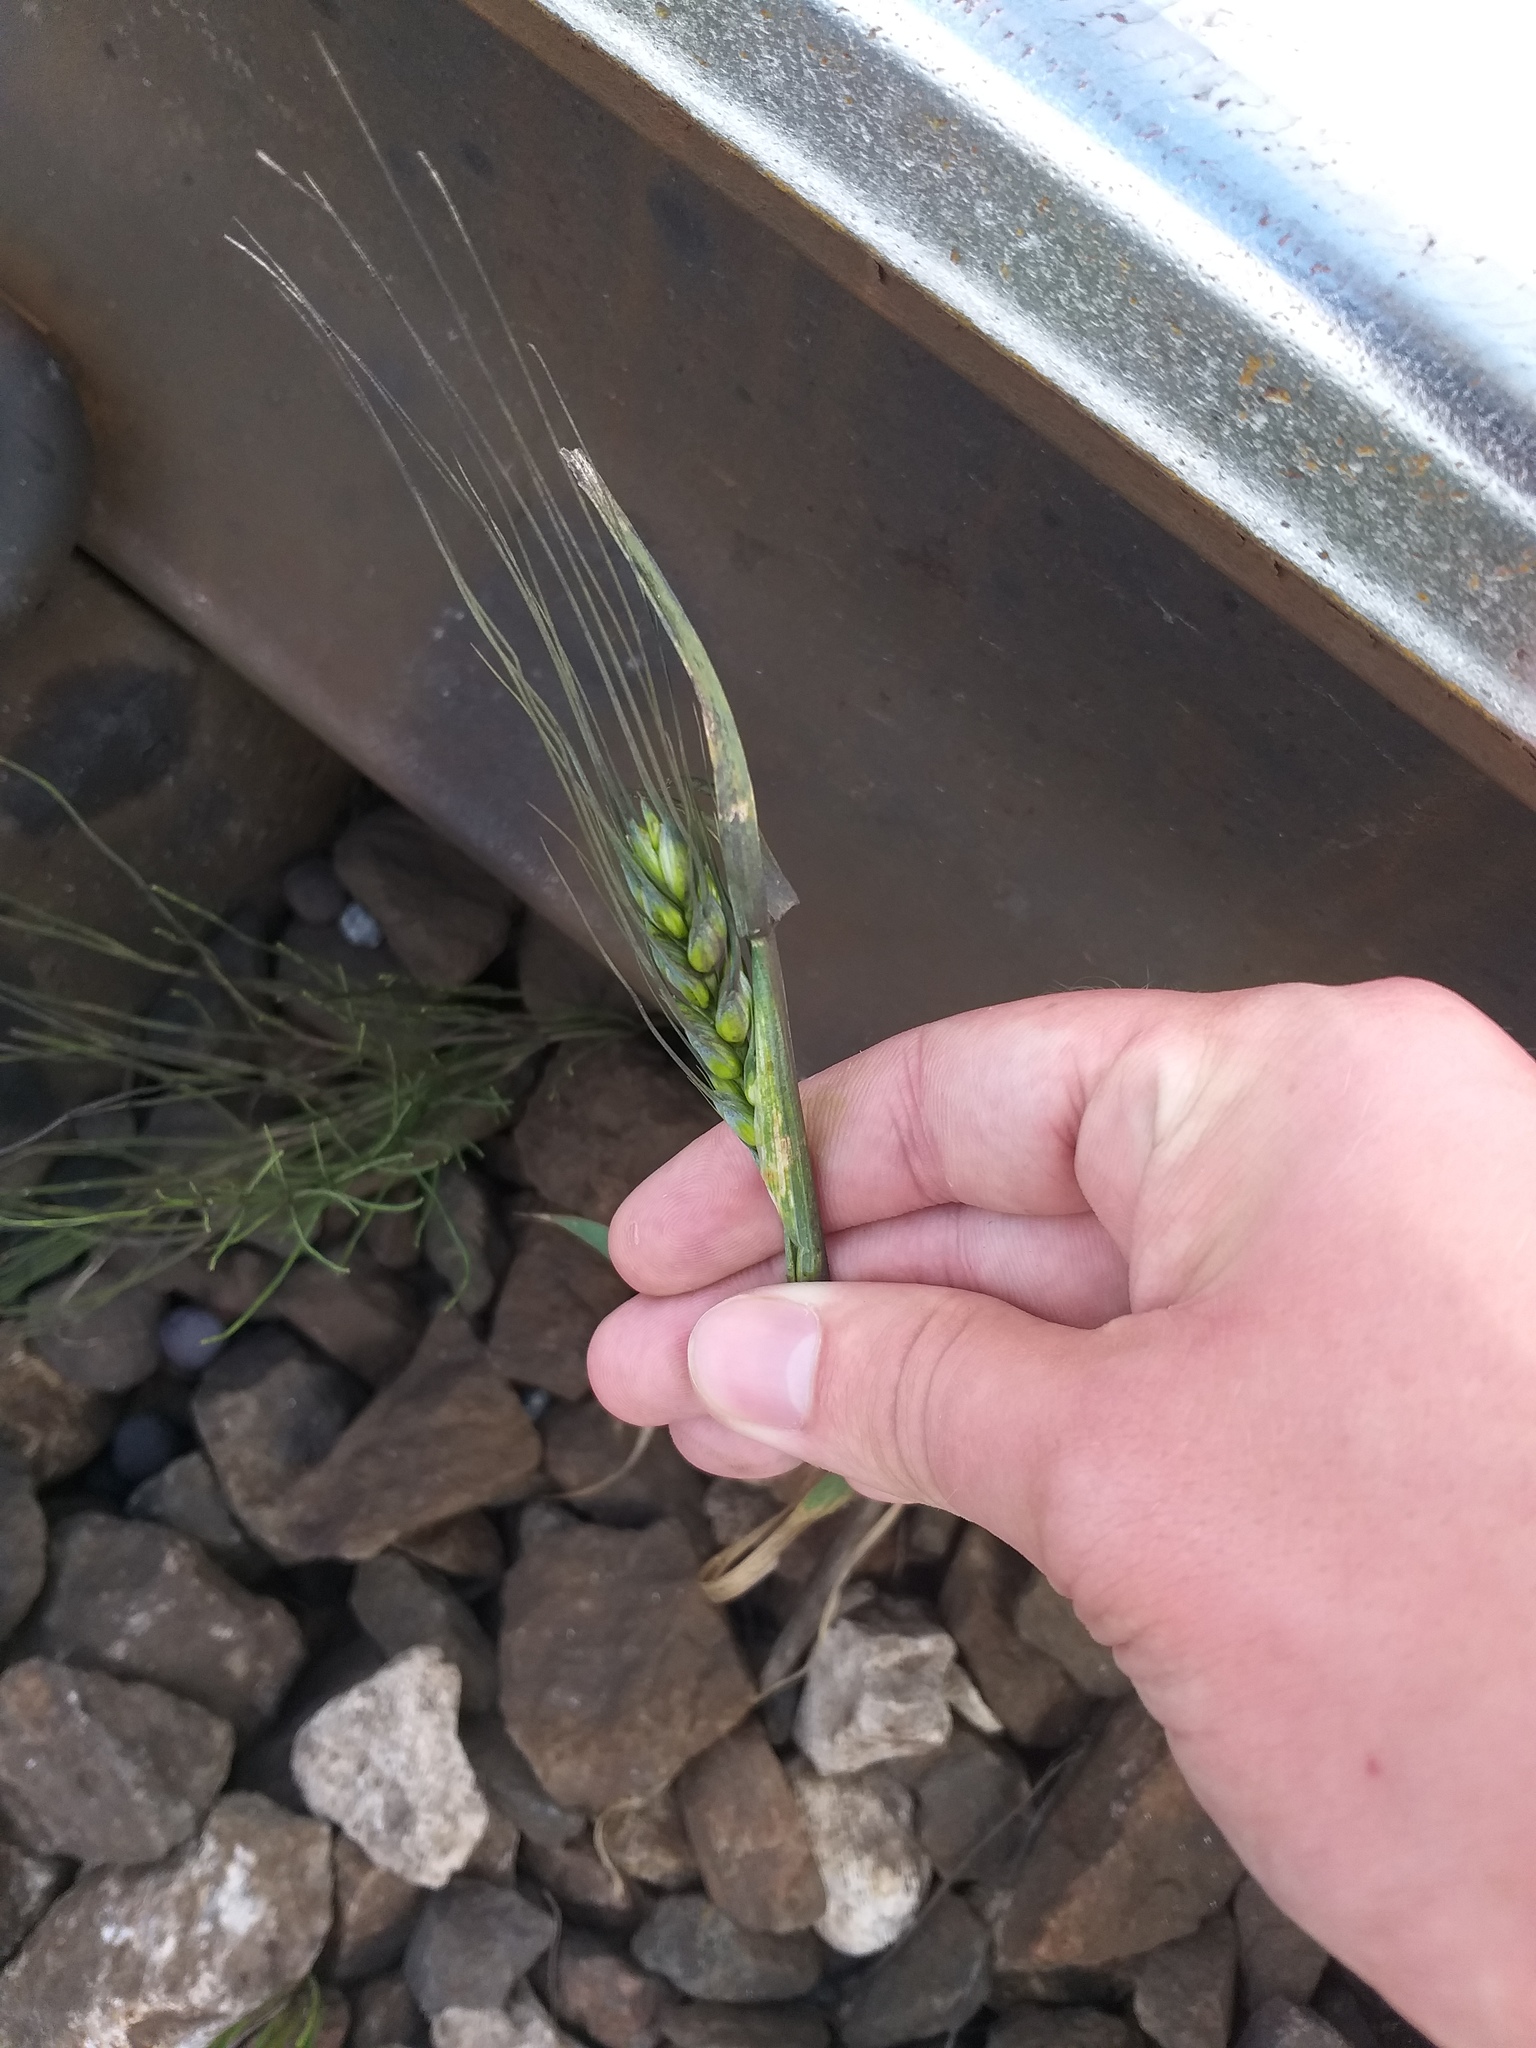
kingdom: Plantae
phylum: Tracheophyta
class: Liliopsida
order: Poales
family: Poaceae
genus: Triticum
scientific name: Triticum aestivum
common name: Common wheat
